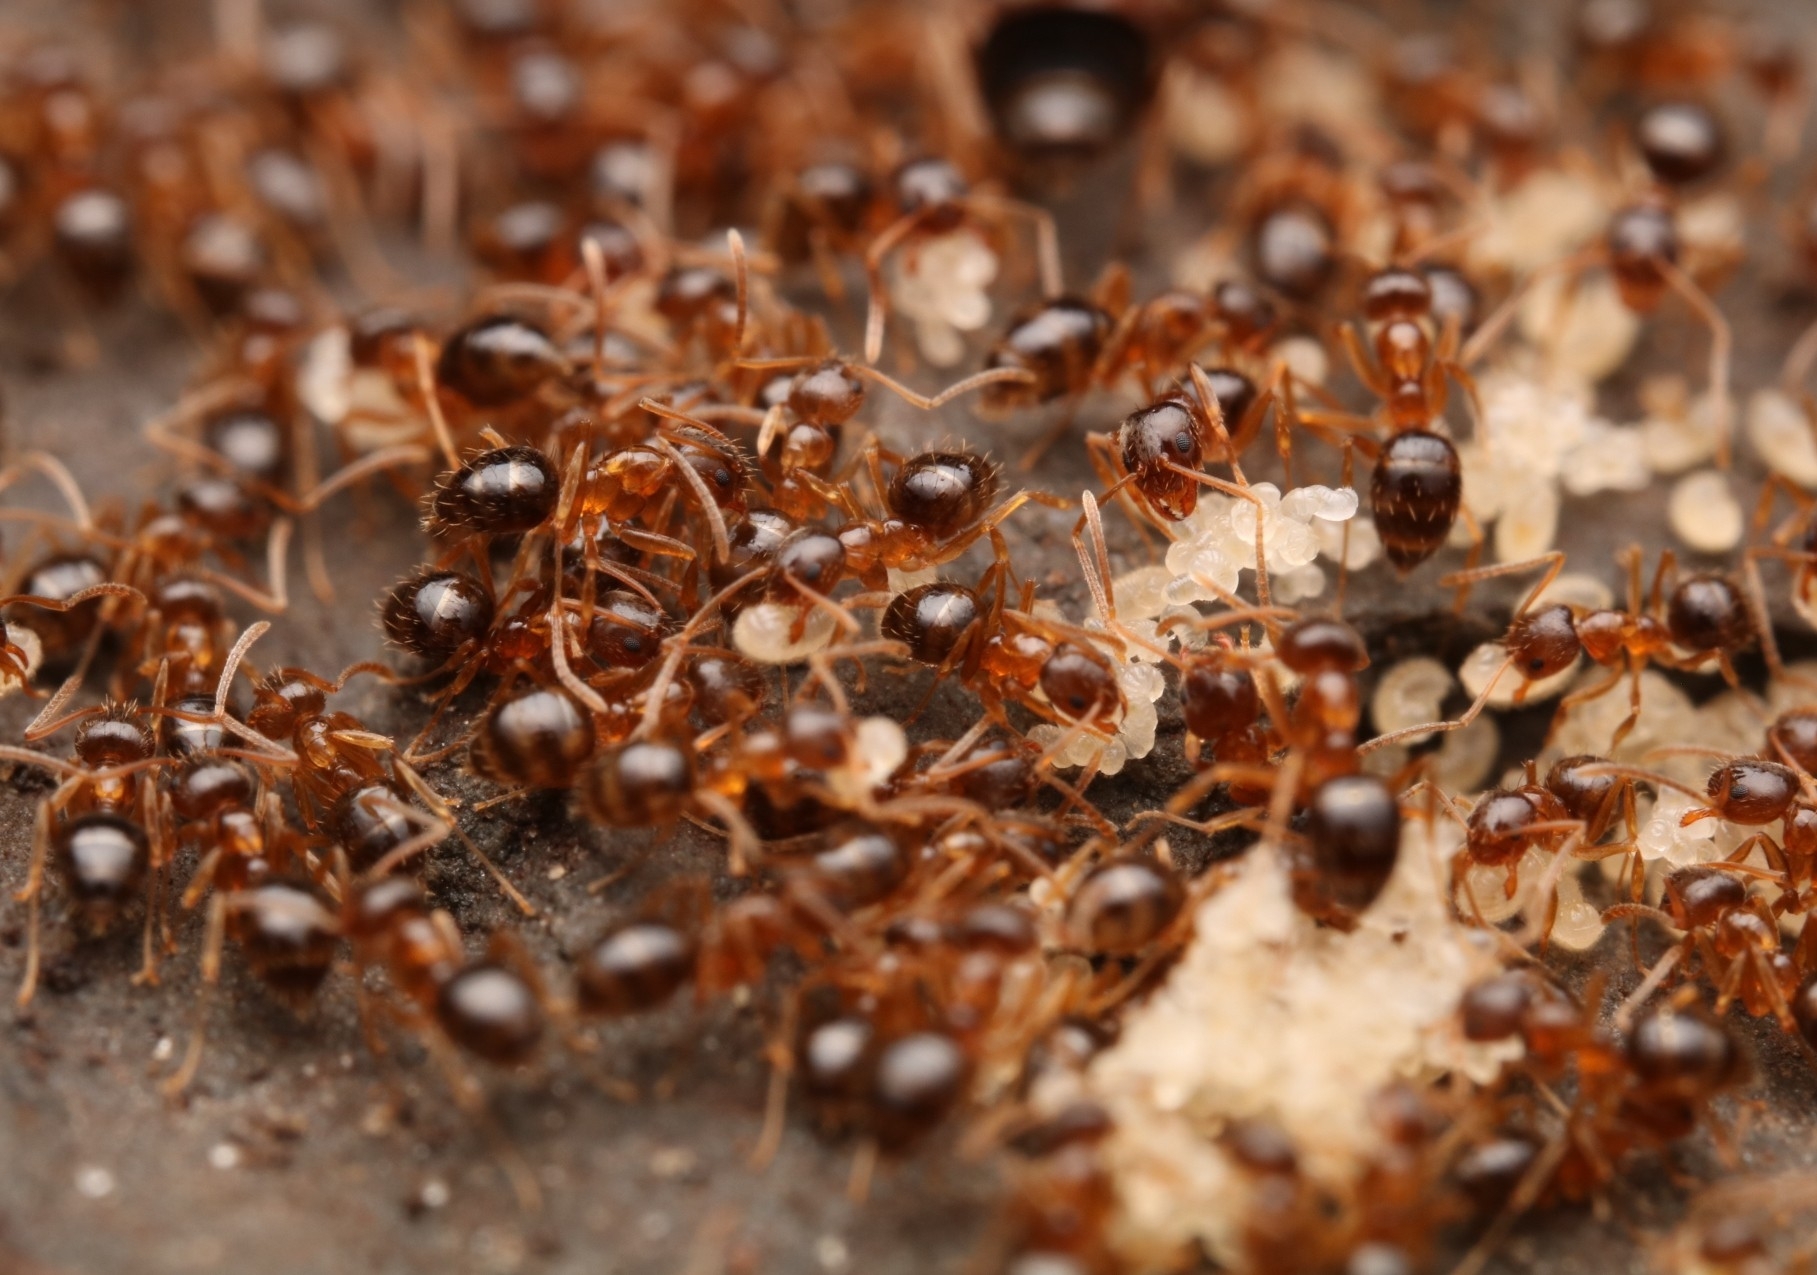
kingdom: Animalia
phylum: Arthropoda
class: Insecta
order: Hymenoptera
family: Formicidae
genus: Paratrechina
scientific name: Paratrechina flavipes
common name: Eastern asian formicine ant
